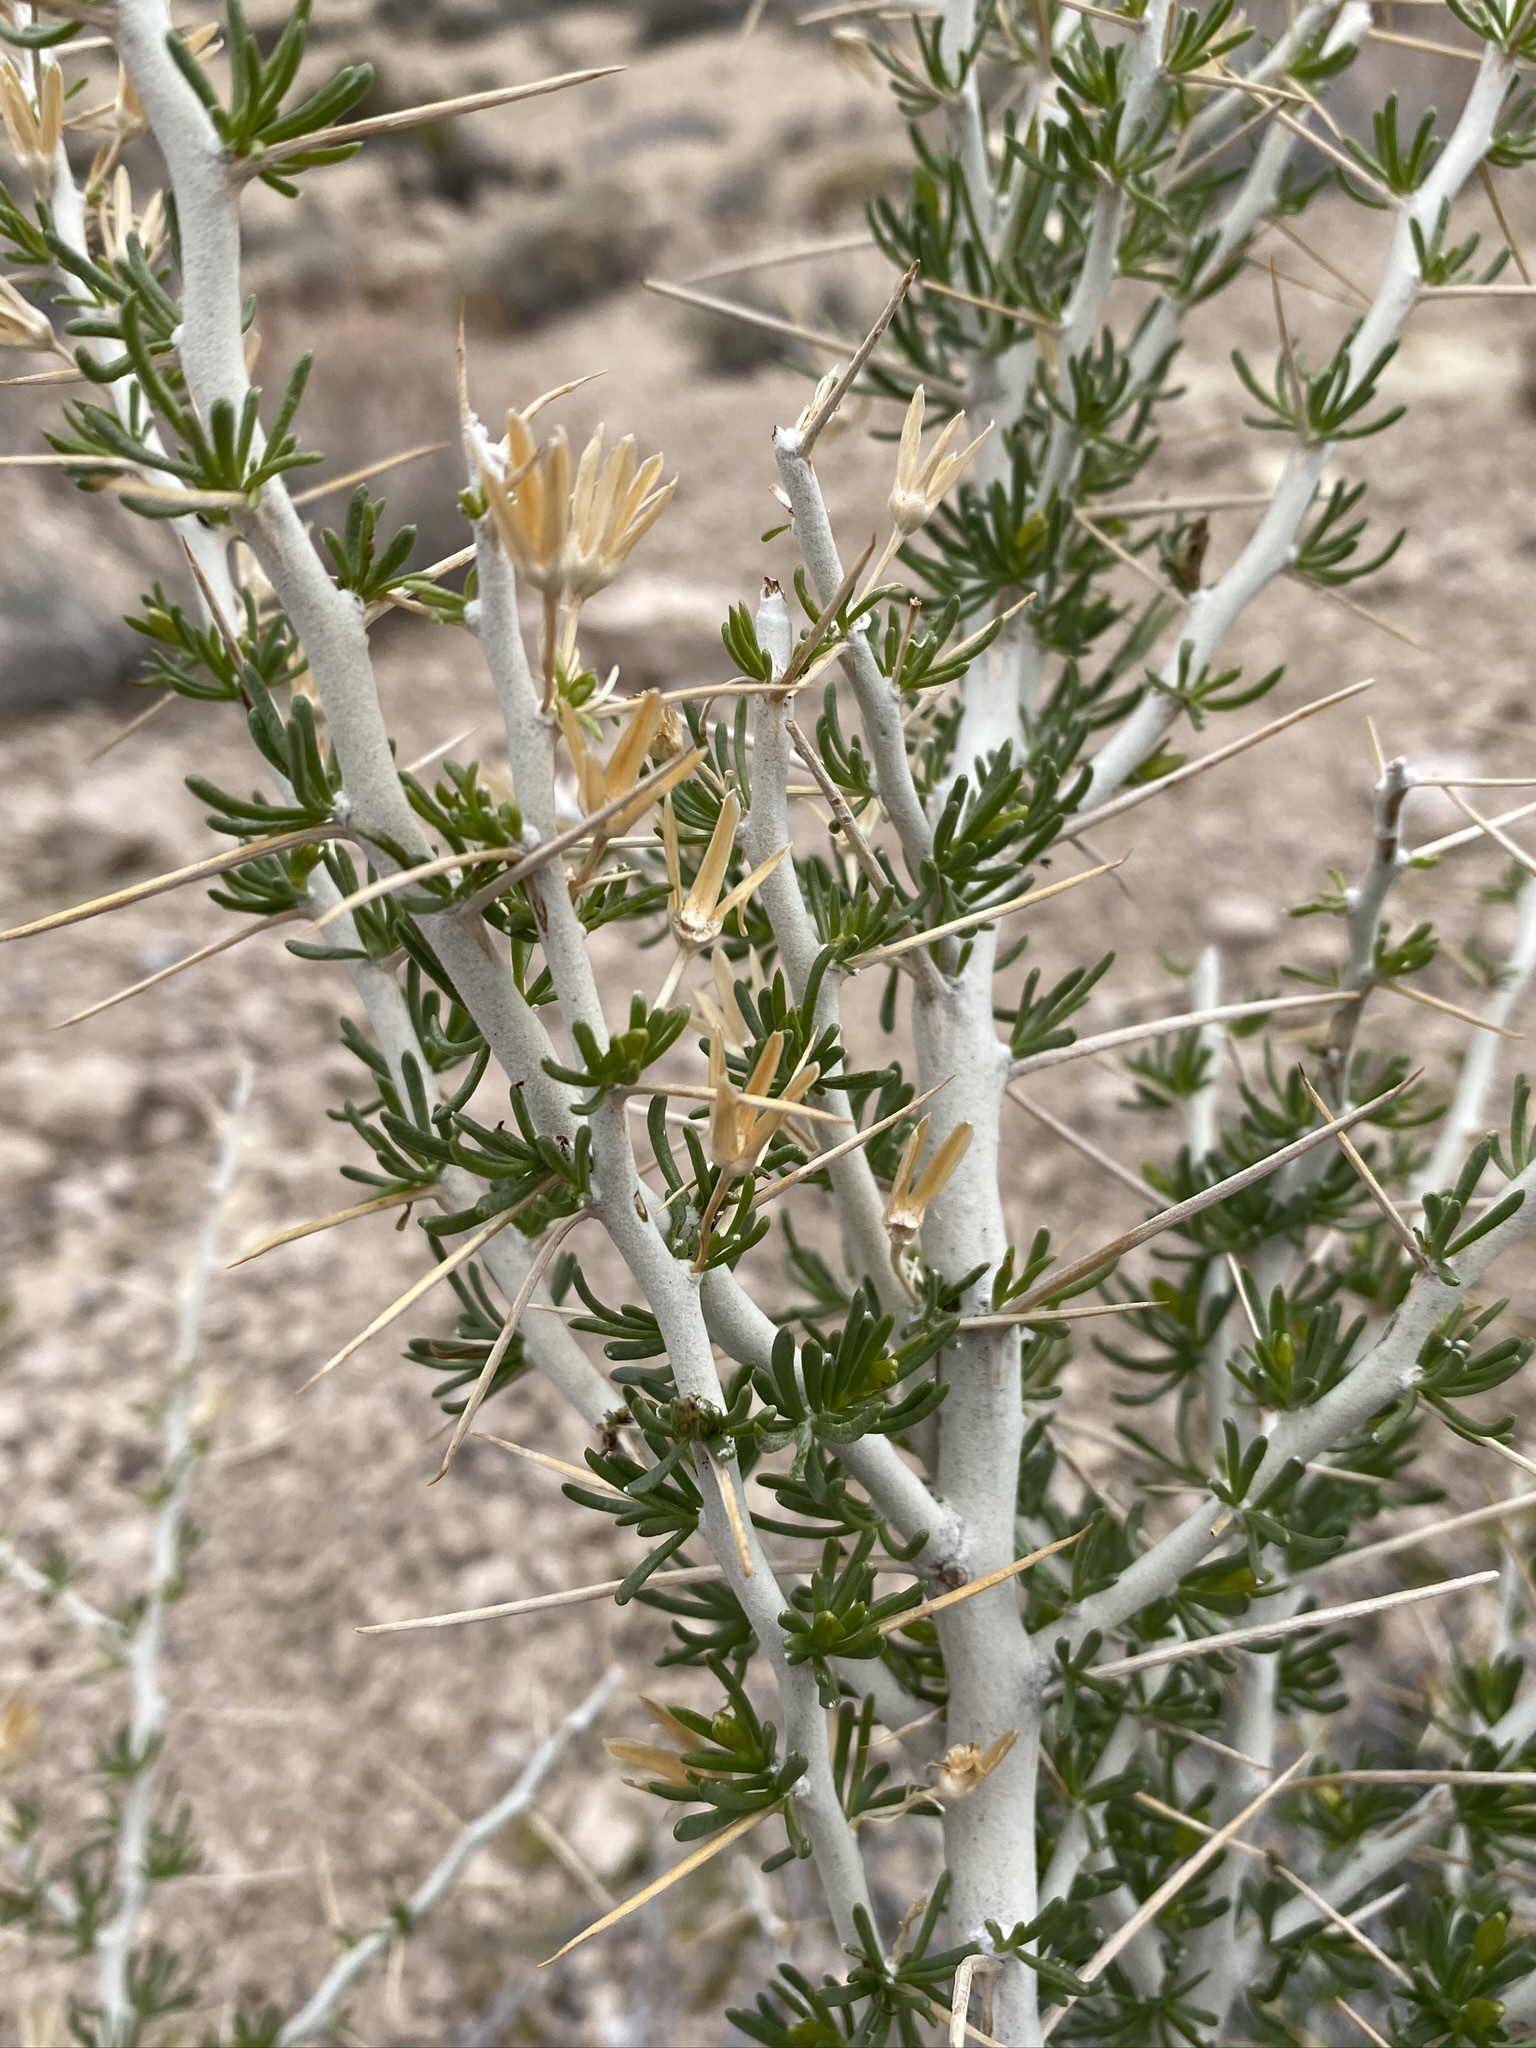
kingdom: Plantae
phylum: Tracheophyta
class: Magnoliopsida
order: Asterales
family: Asteraceae
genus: Tetradymia
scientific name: Tetradymia axillaris
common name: Long-spine horsebrush
